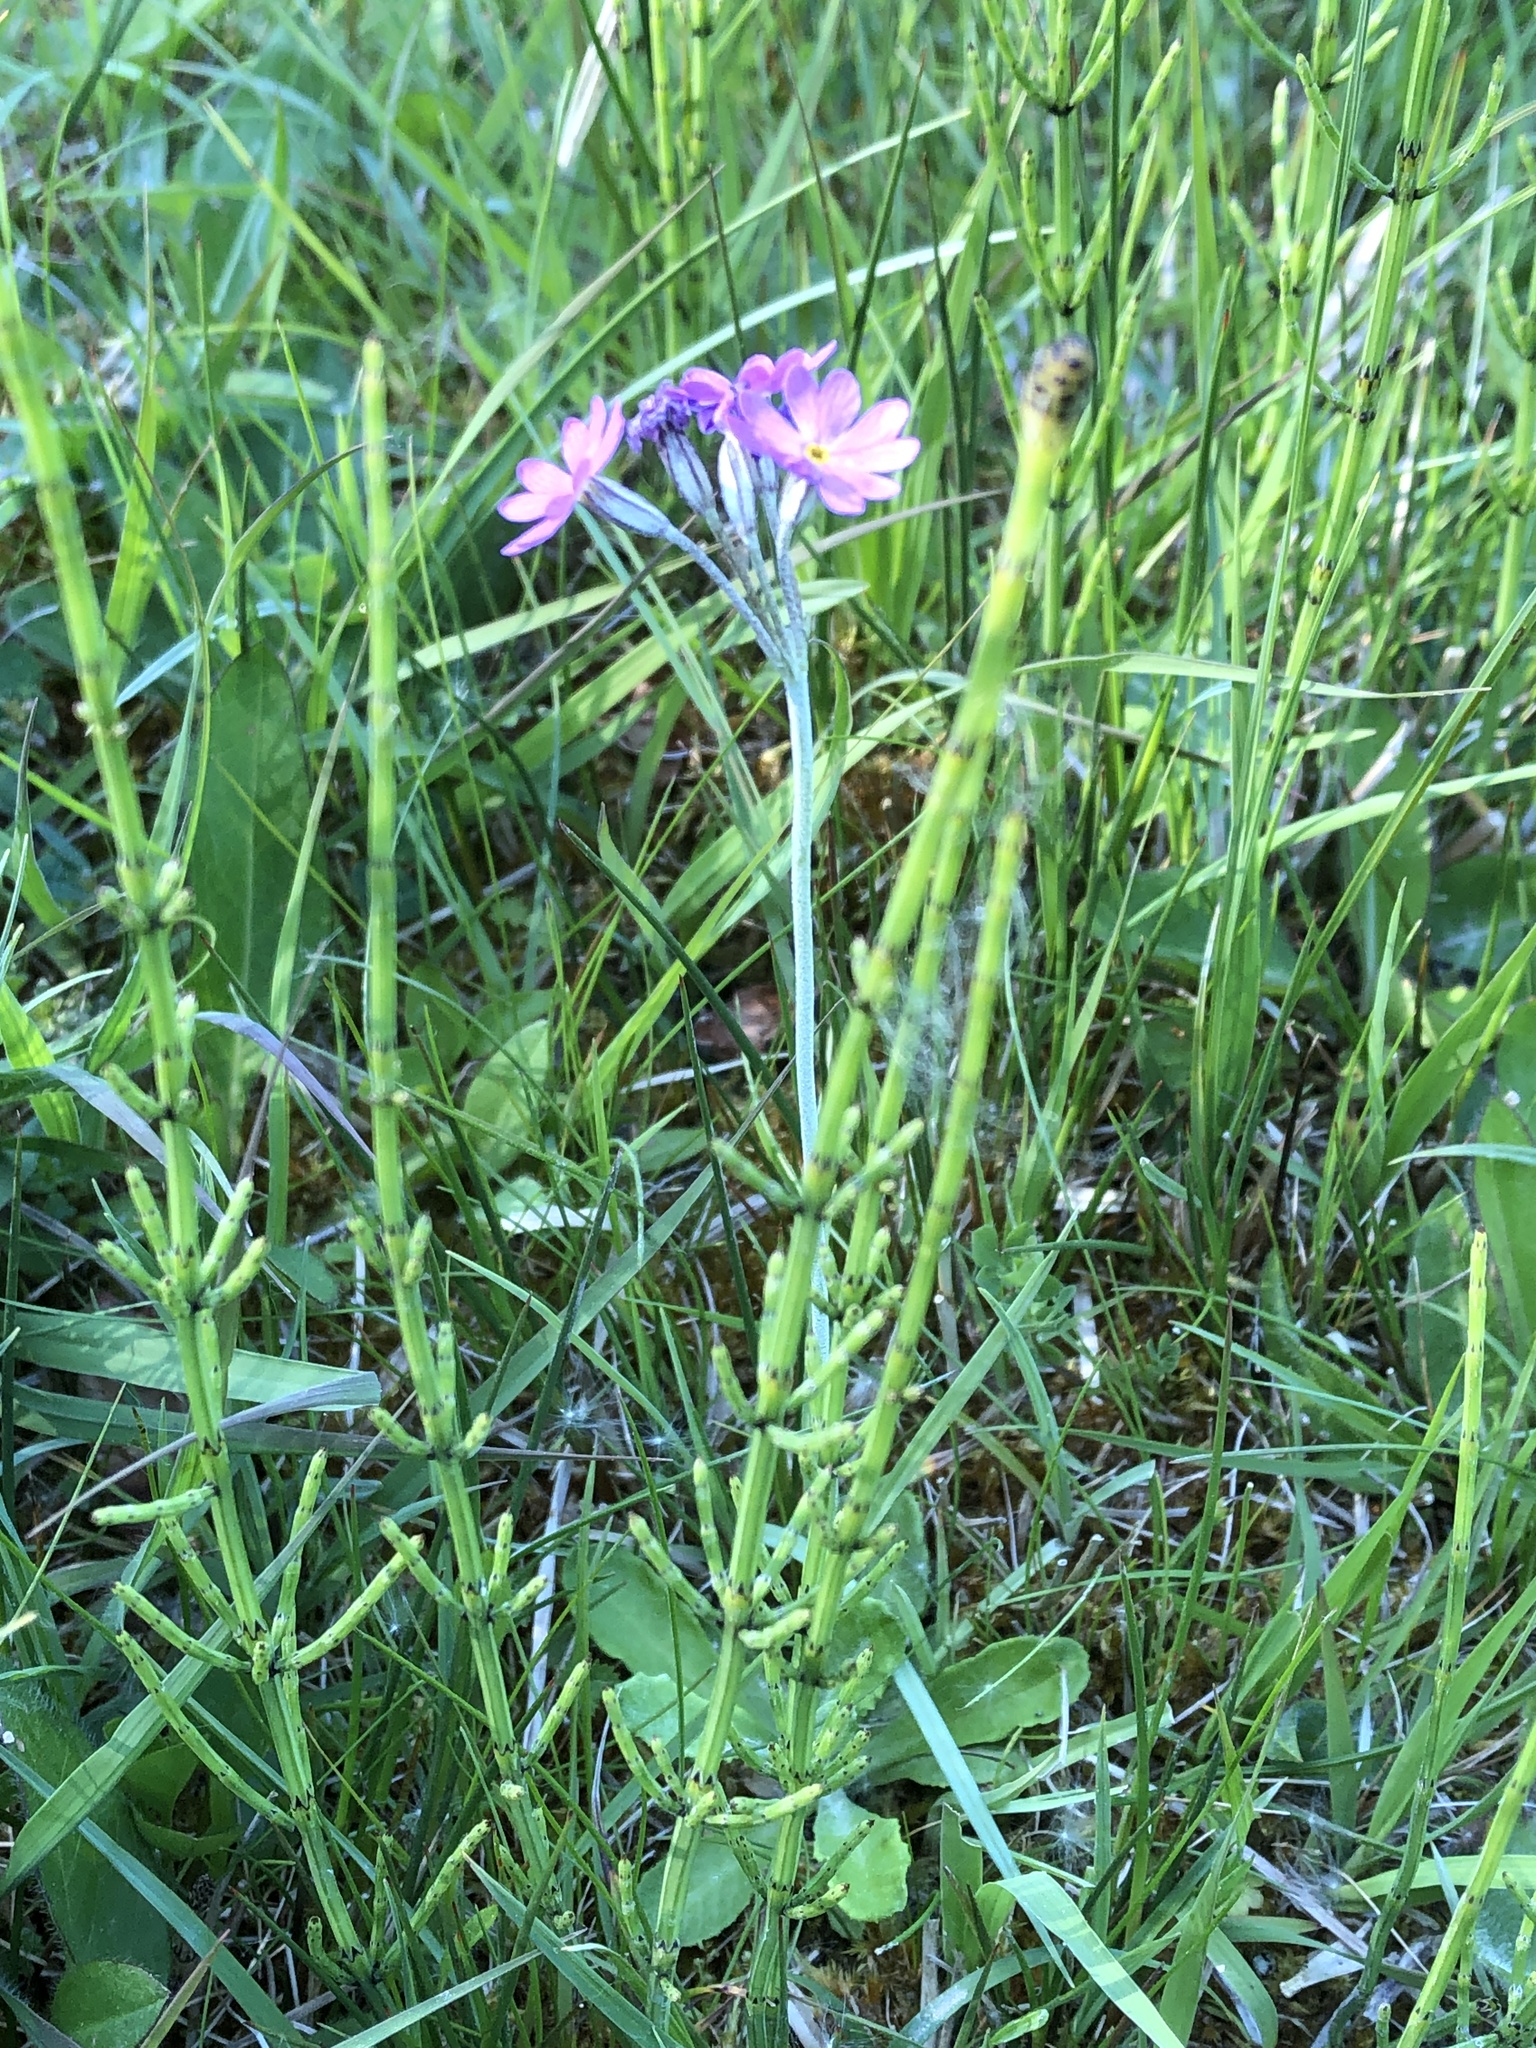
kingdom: Plantae
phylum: Tracheophyta
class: Magnoliopsida
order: Ericales
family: Primulaceae
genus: Primula
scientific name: Primula farinosa
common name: Bird's-eye primrose
